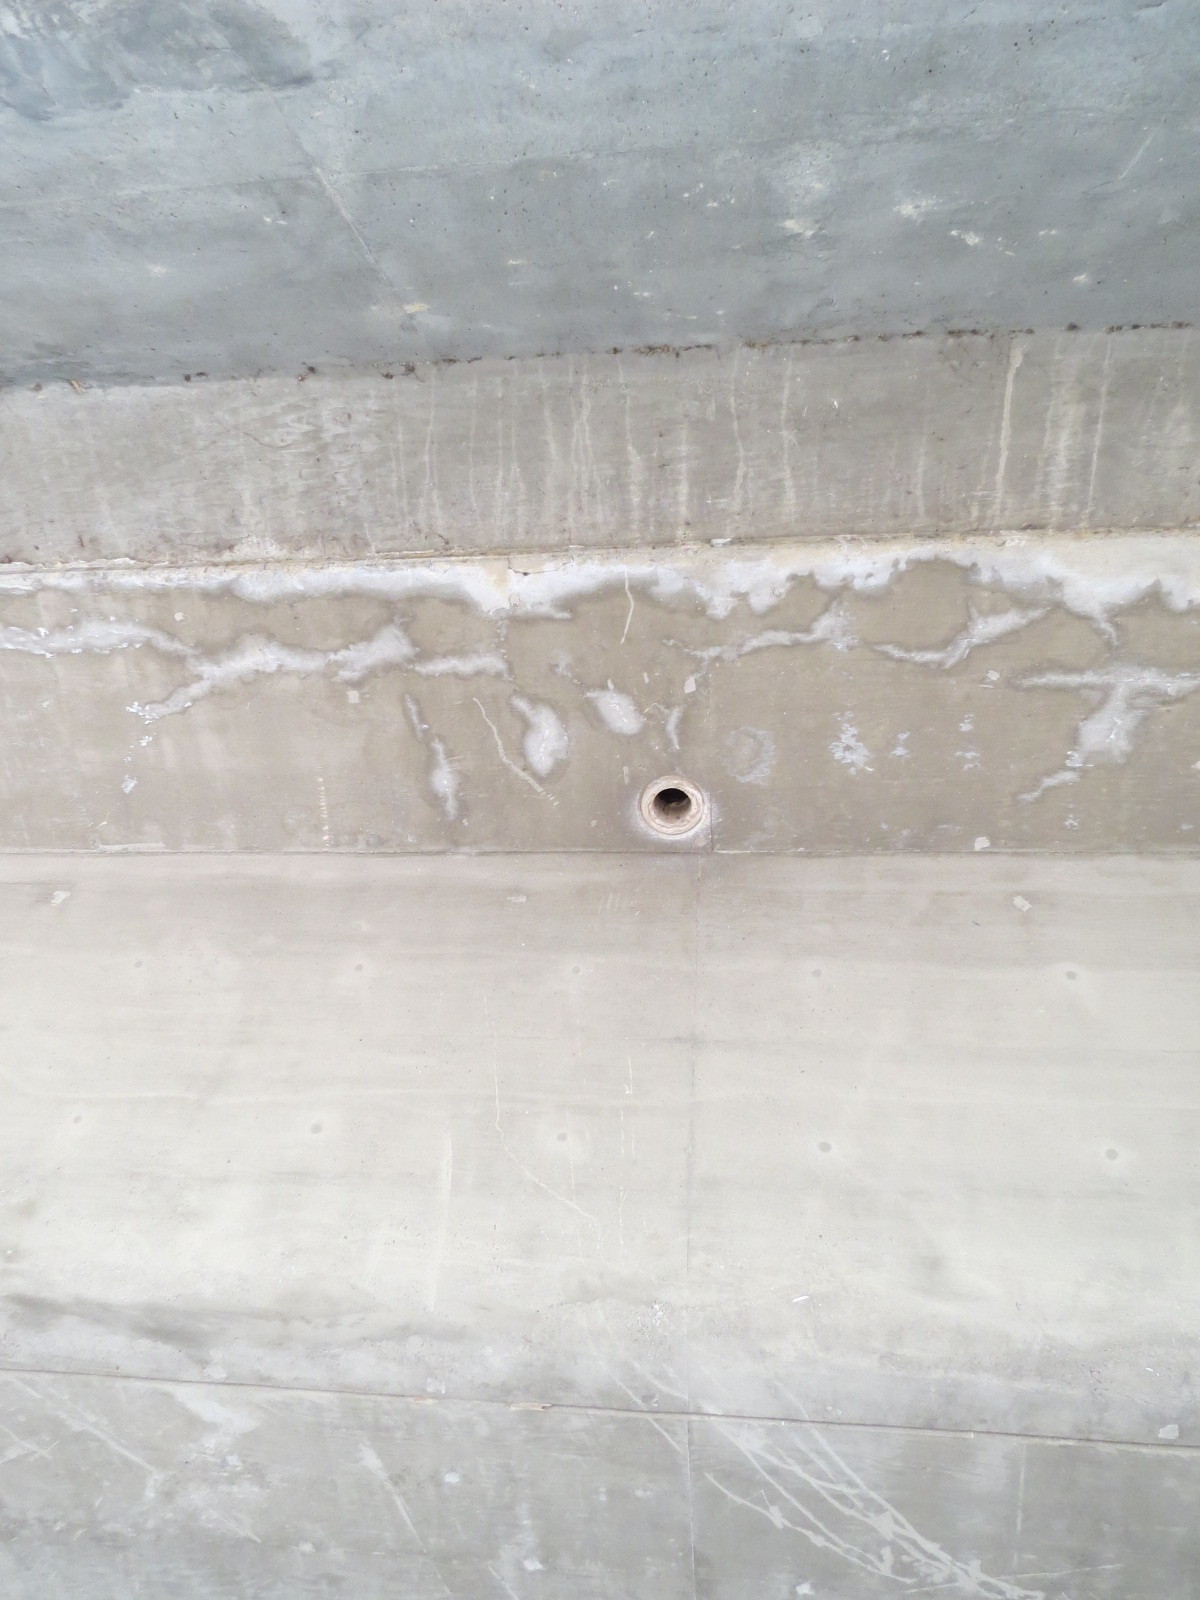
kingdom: Animalia
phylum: Chordata
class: Mammalia
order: Chiroptera
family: Vespertilionidae
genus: Antrozous
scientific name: Antrozous pallidus
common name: Pallid bat
